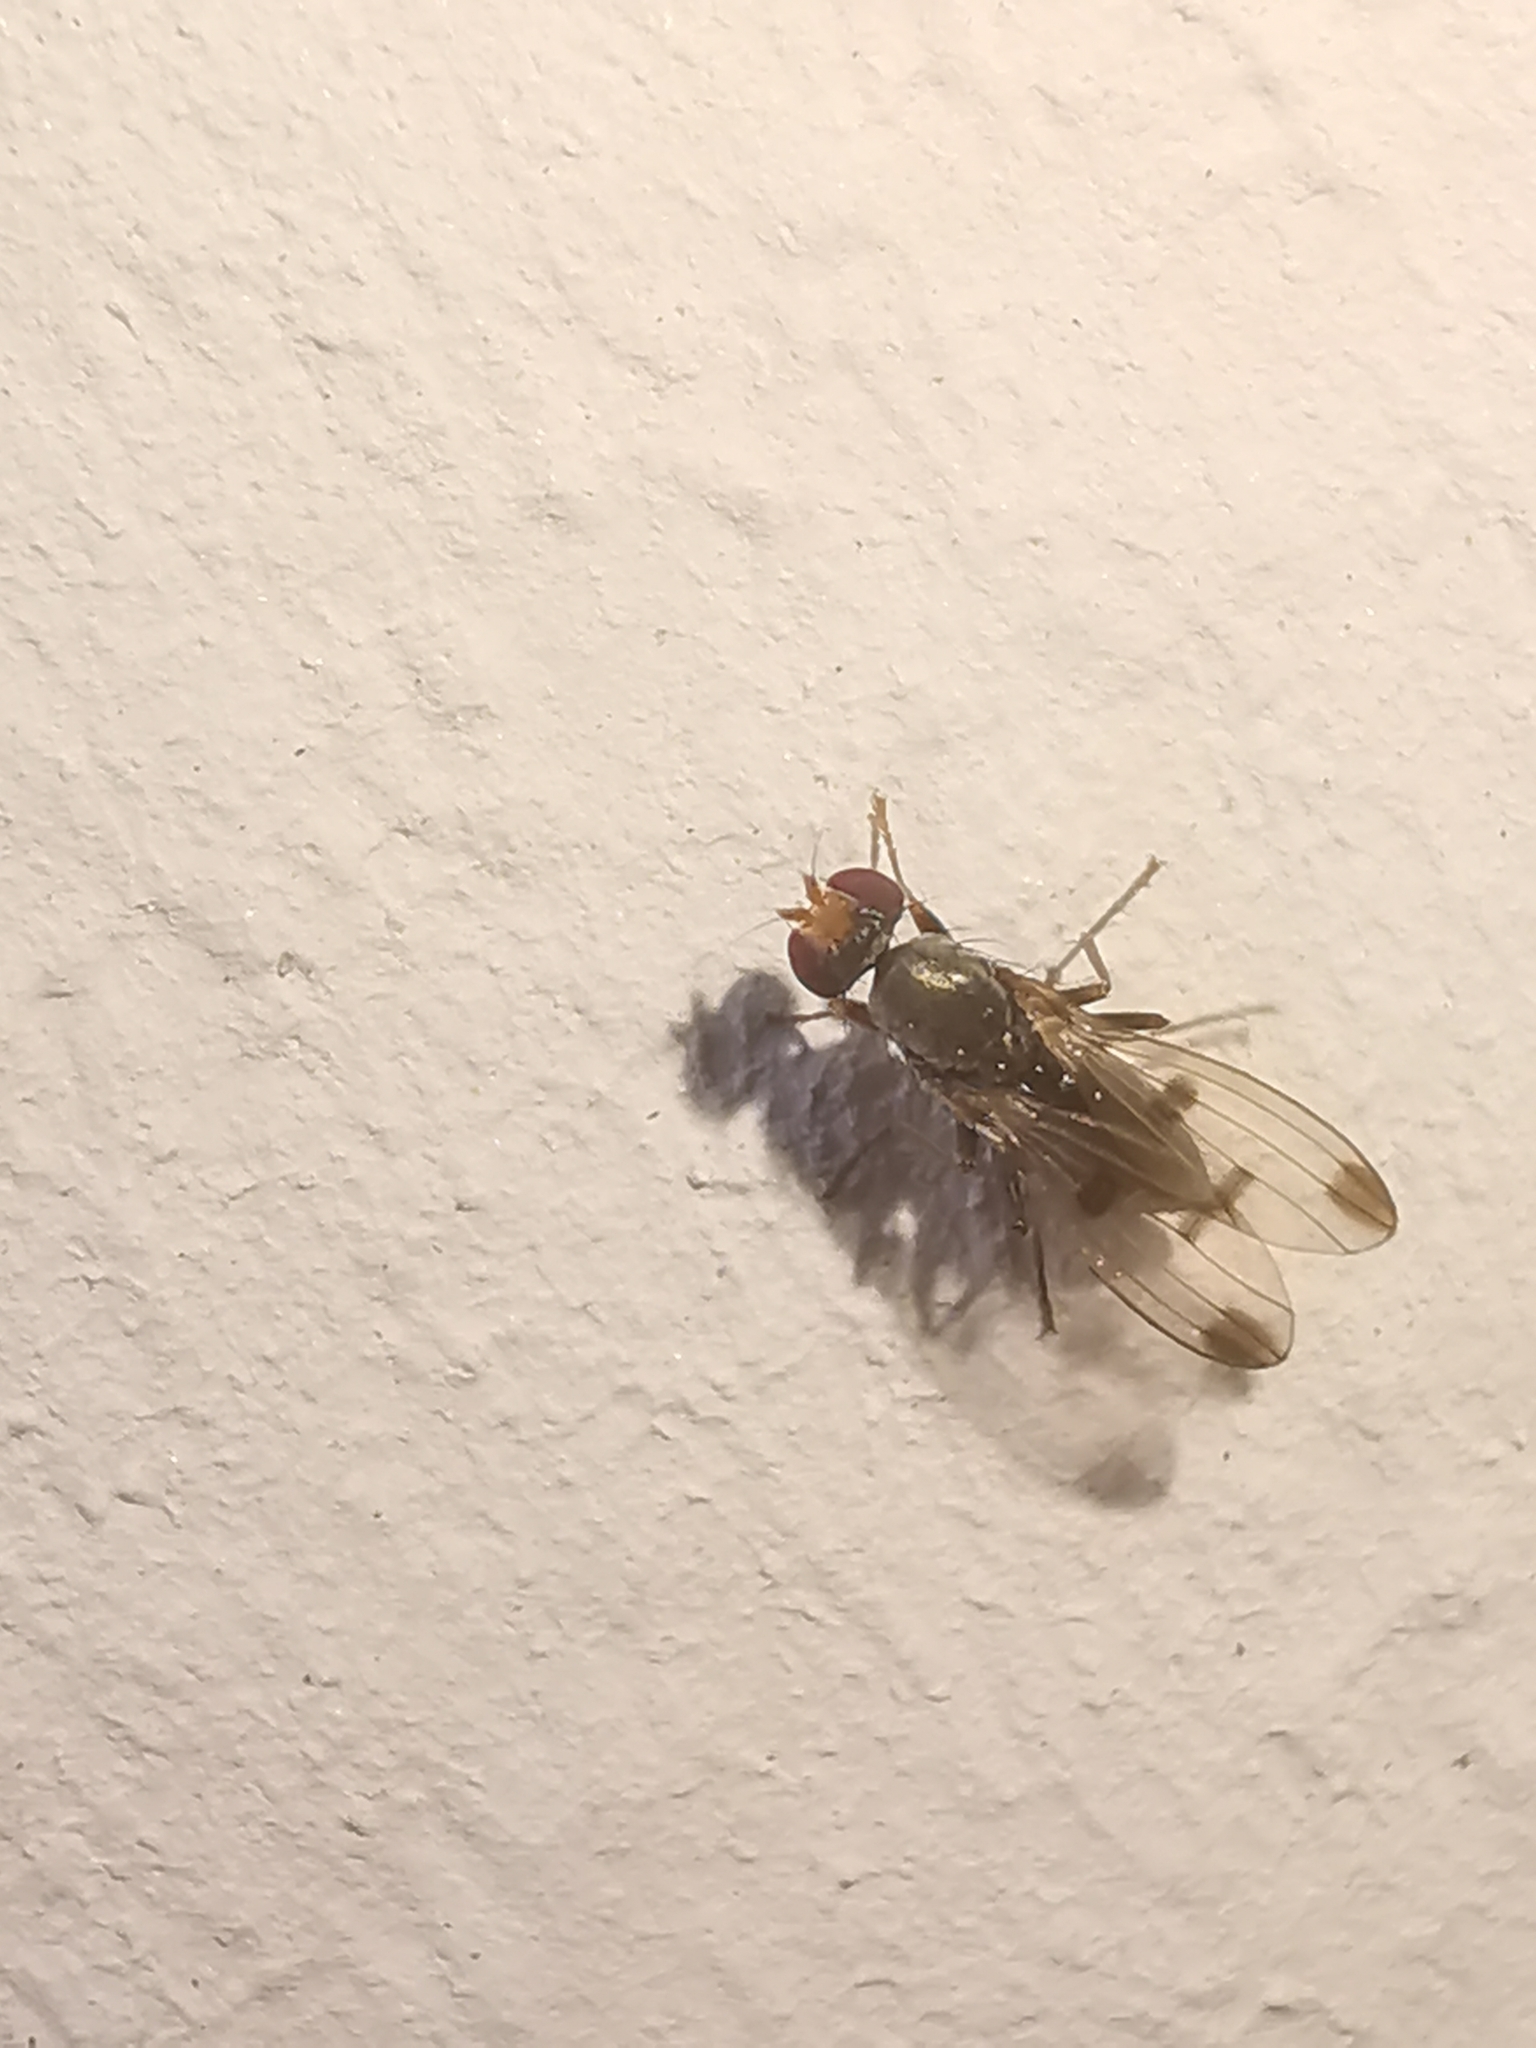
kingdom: Animalia
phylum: Arthropoda
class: Insecta
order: Diptera
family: Opomyzidae
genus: Geomyza
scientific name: Geomyza tripunctata
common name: Cereal fly
